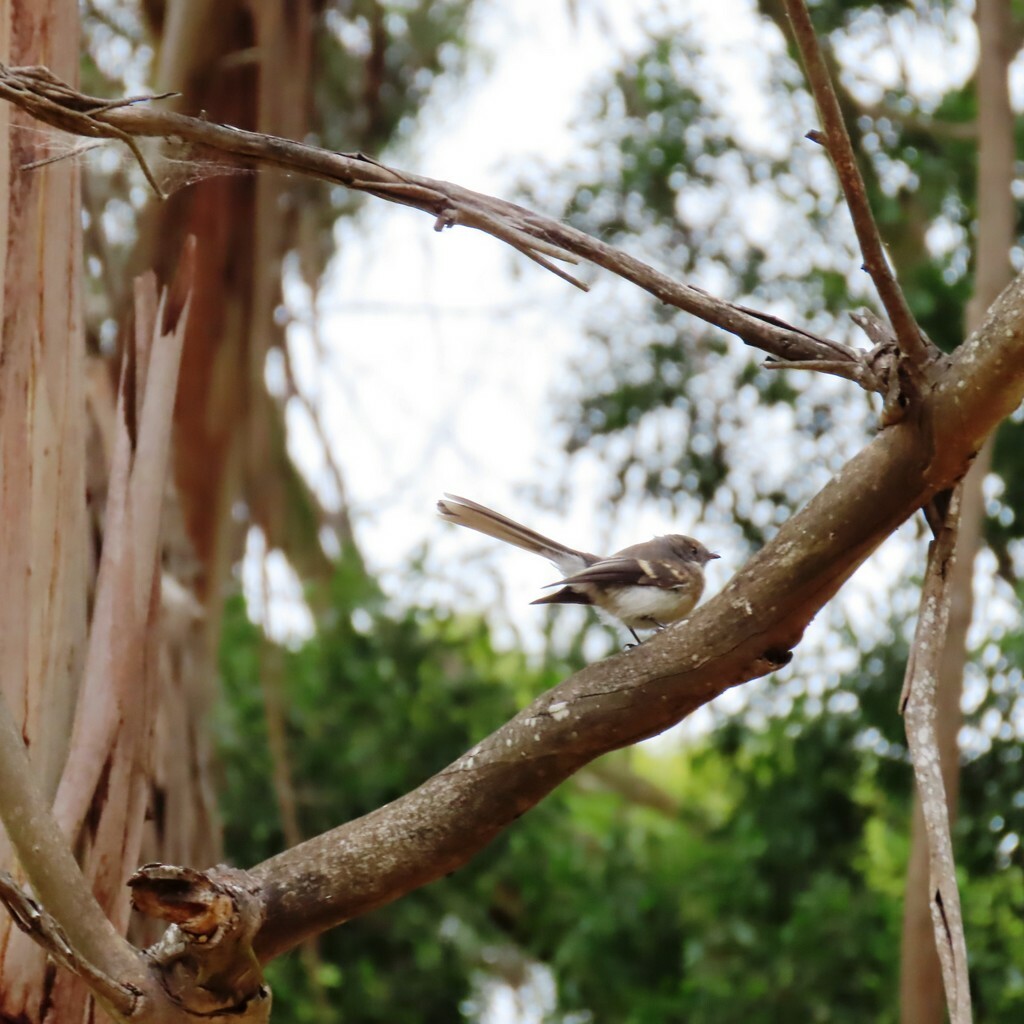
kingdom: Animalia
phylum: Chordata
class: Aves
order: Passeriformes
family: Rhipiduridae
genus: Rhipidura
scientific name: Rhipidura albiscapa
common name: Grey fantail
